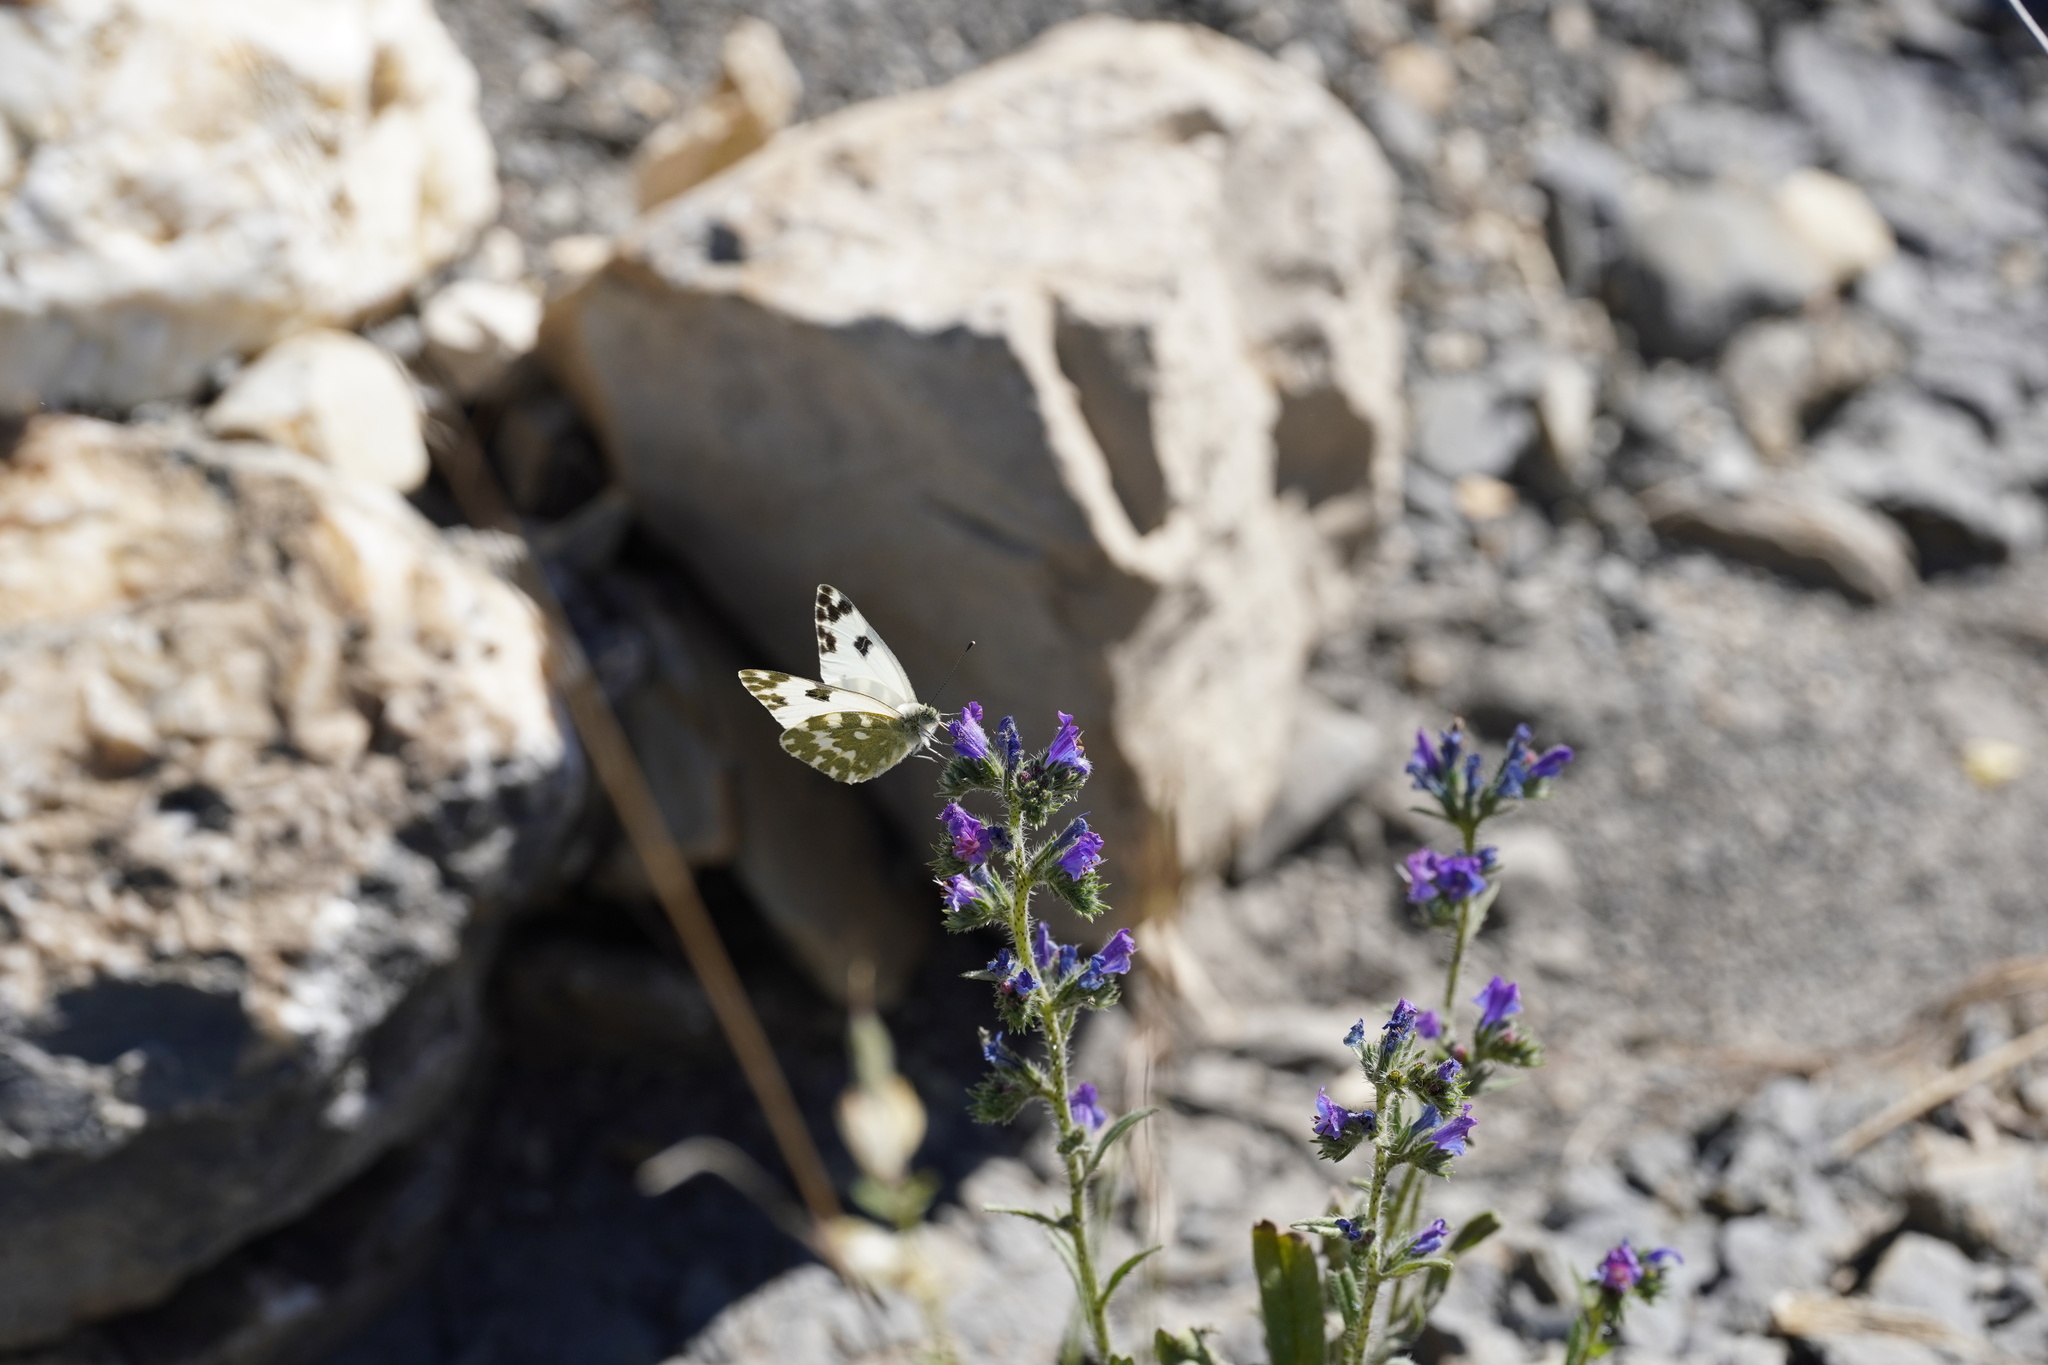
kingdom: Animalia
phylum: Arthropoda
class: Insecta
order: Lepidoptera
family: Pieridae
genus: Pontia
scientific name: Pontia daplidice
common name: Bath white
